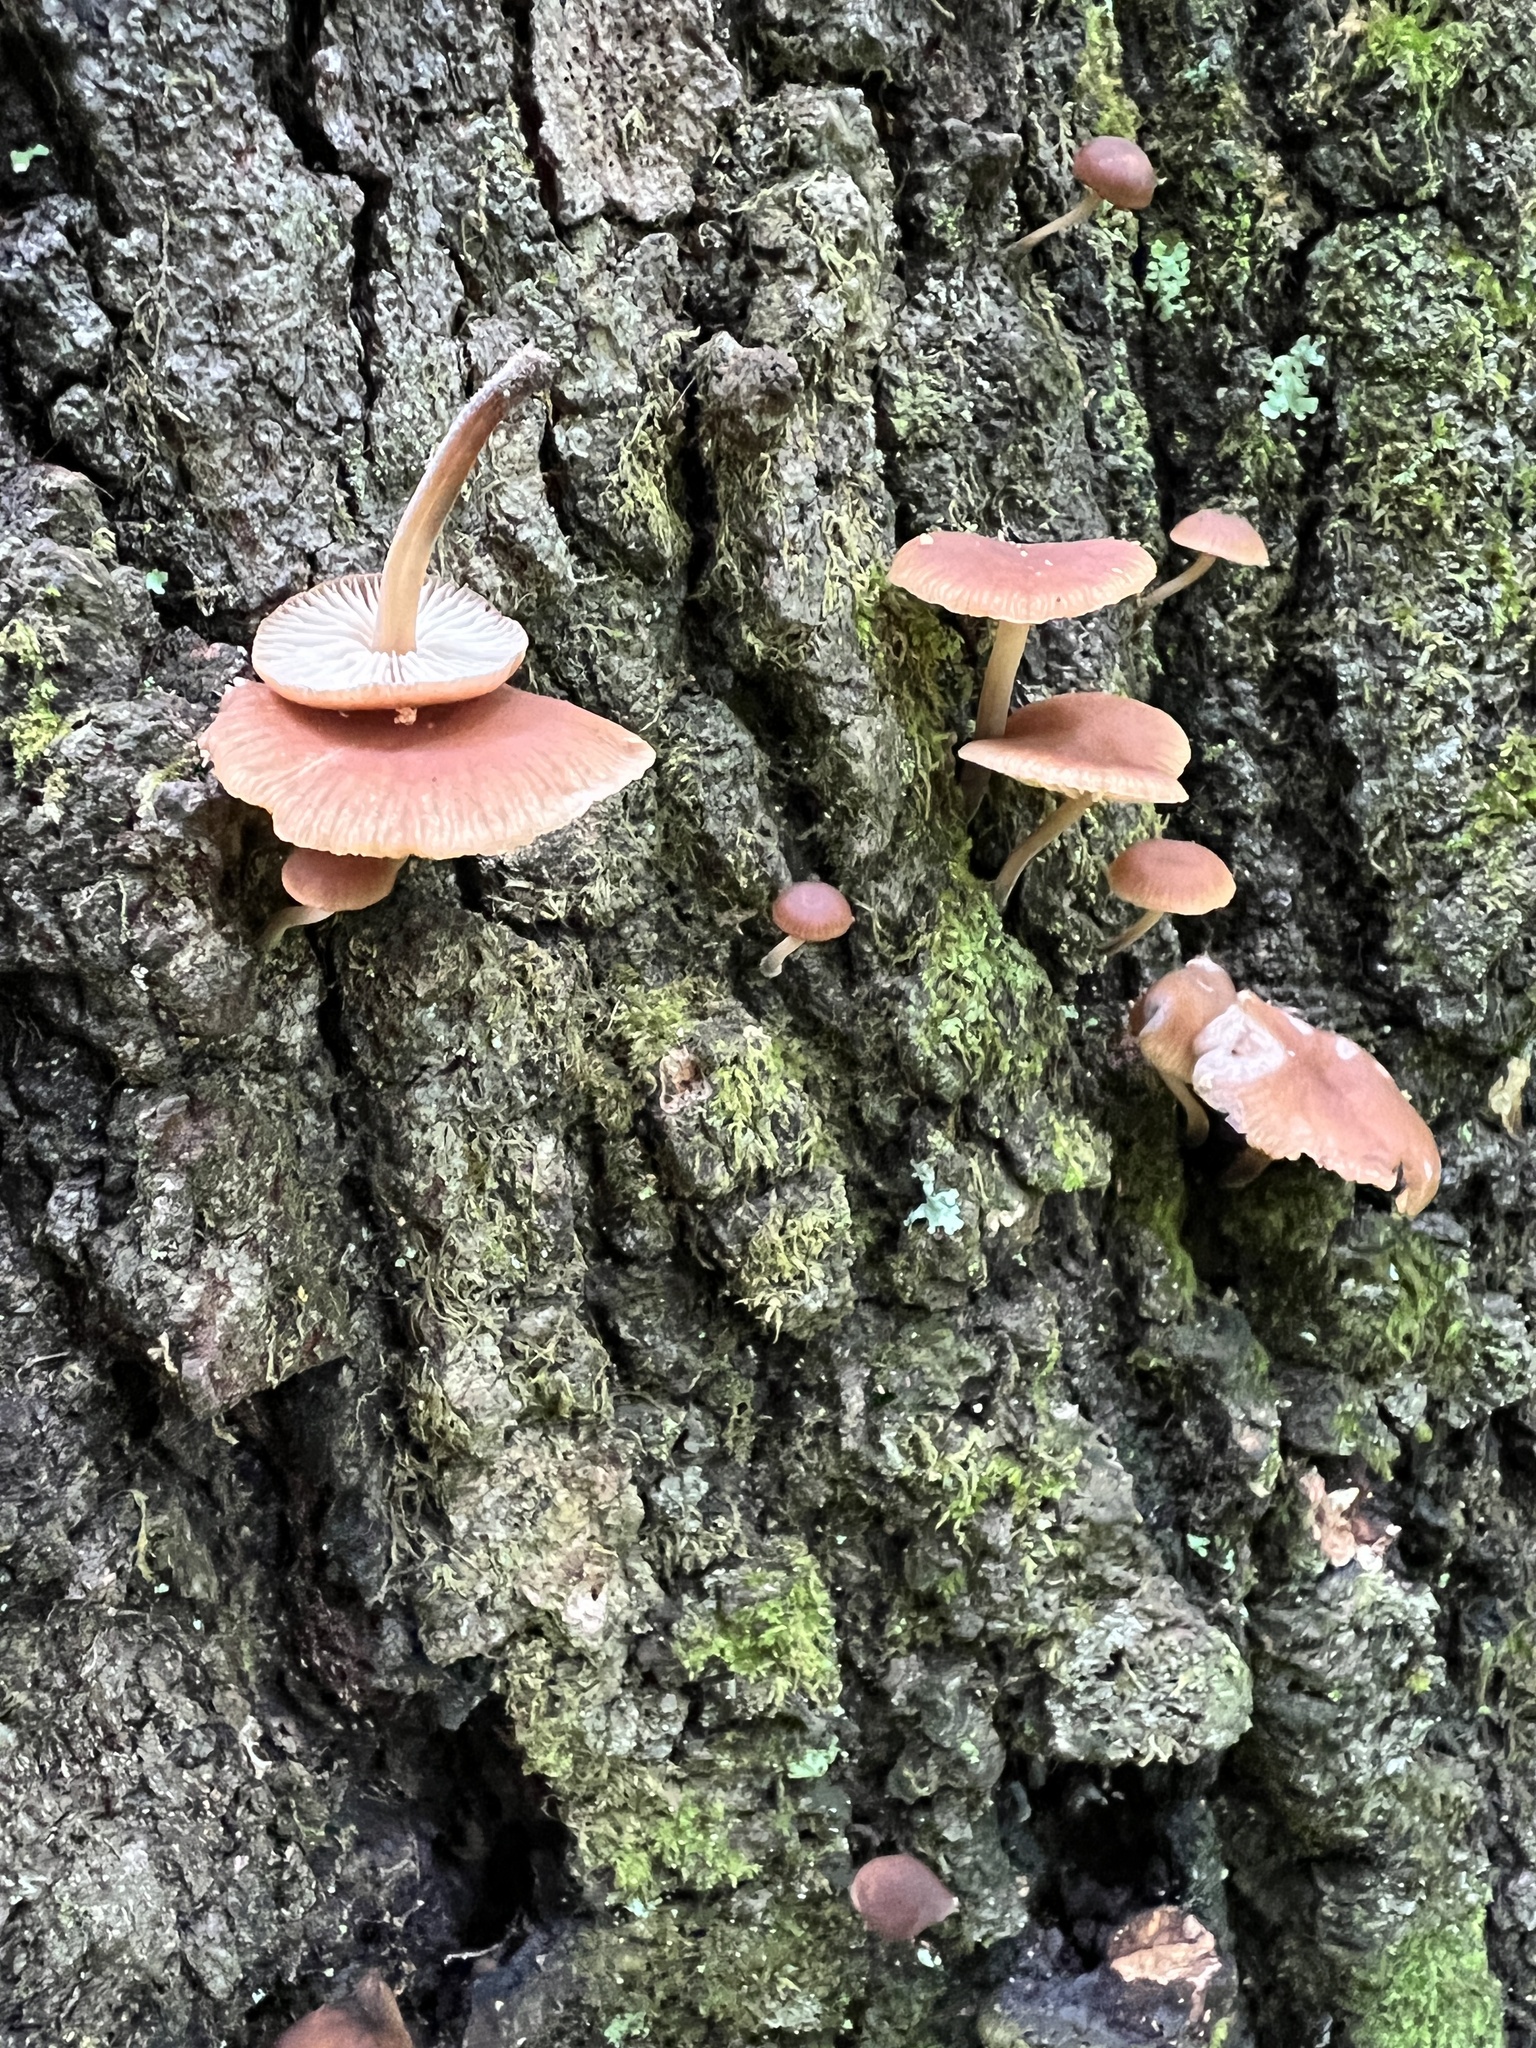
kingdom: Fungi
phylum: Basidiomycota
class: Agaricomycetes
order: Agaricales
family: Omphalotaceae
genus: Collybiopsis
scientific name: Collybiopsis dichroa
